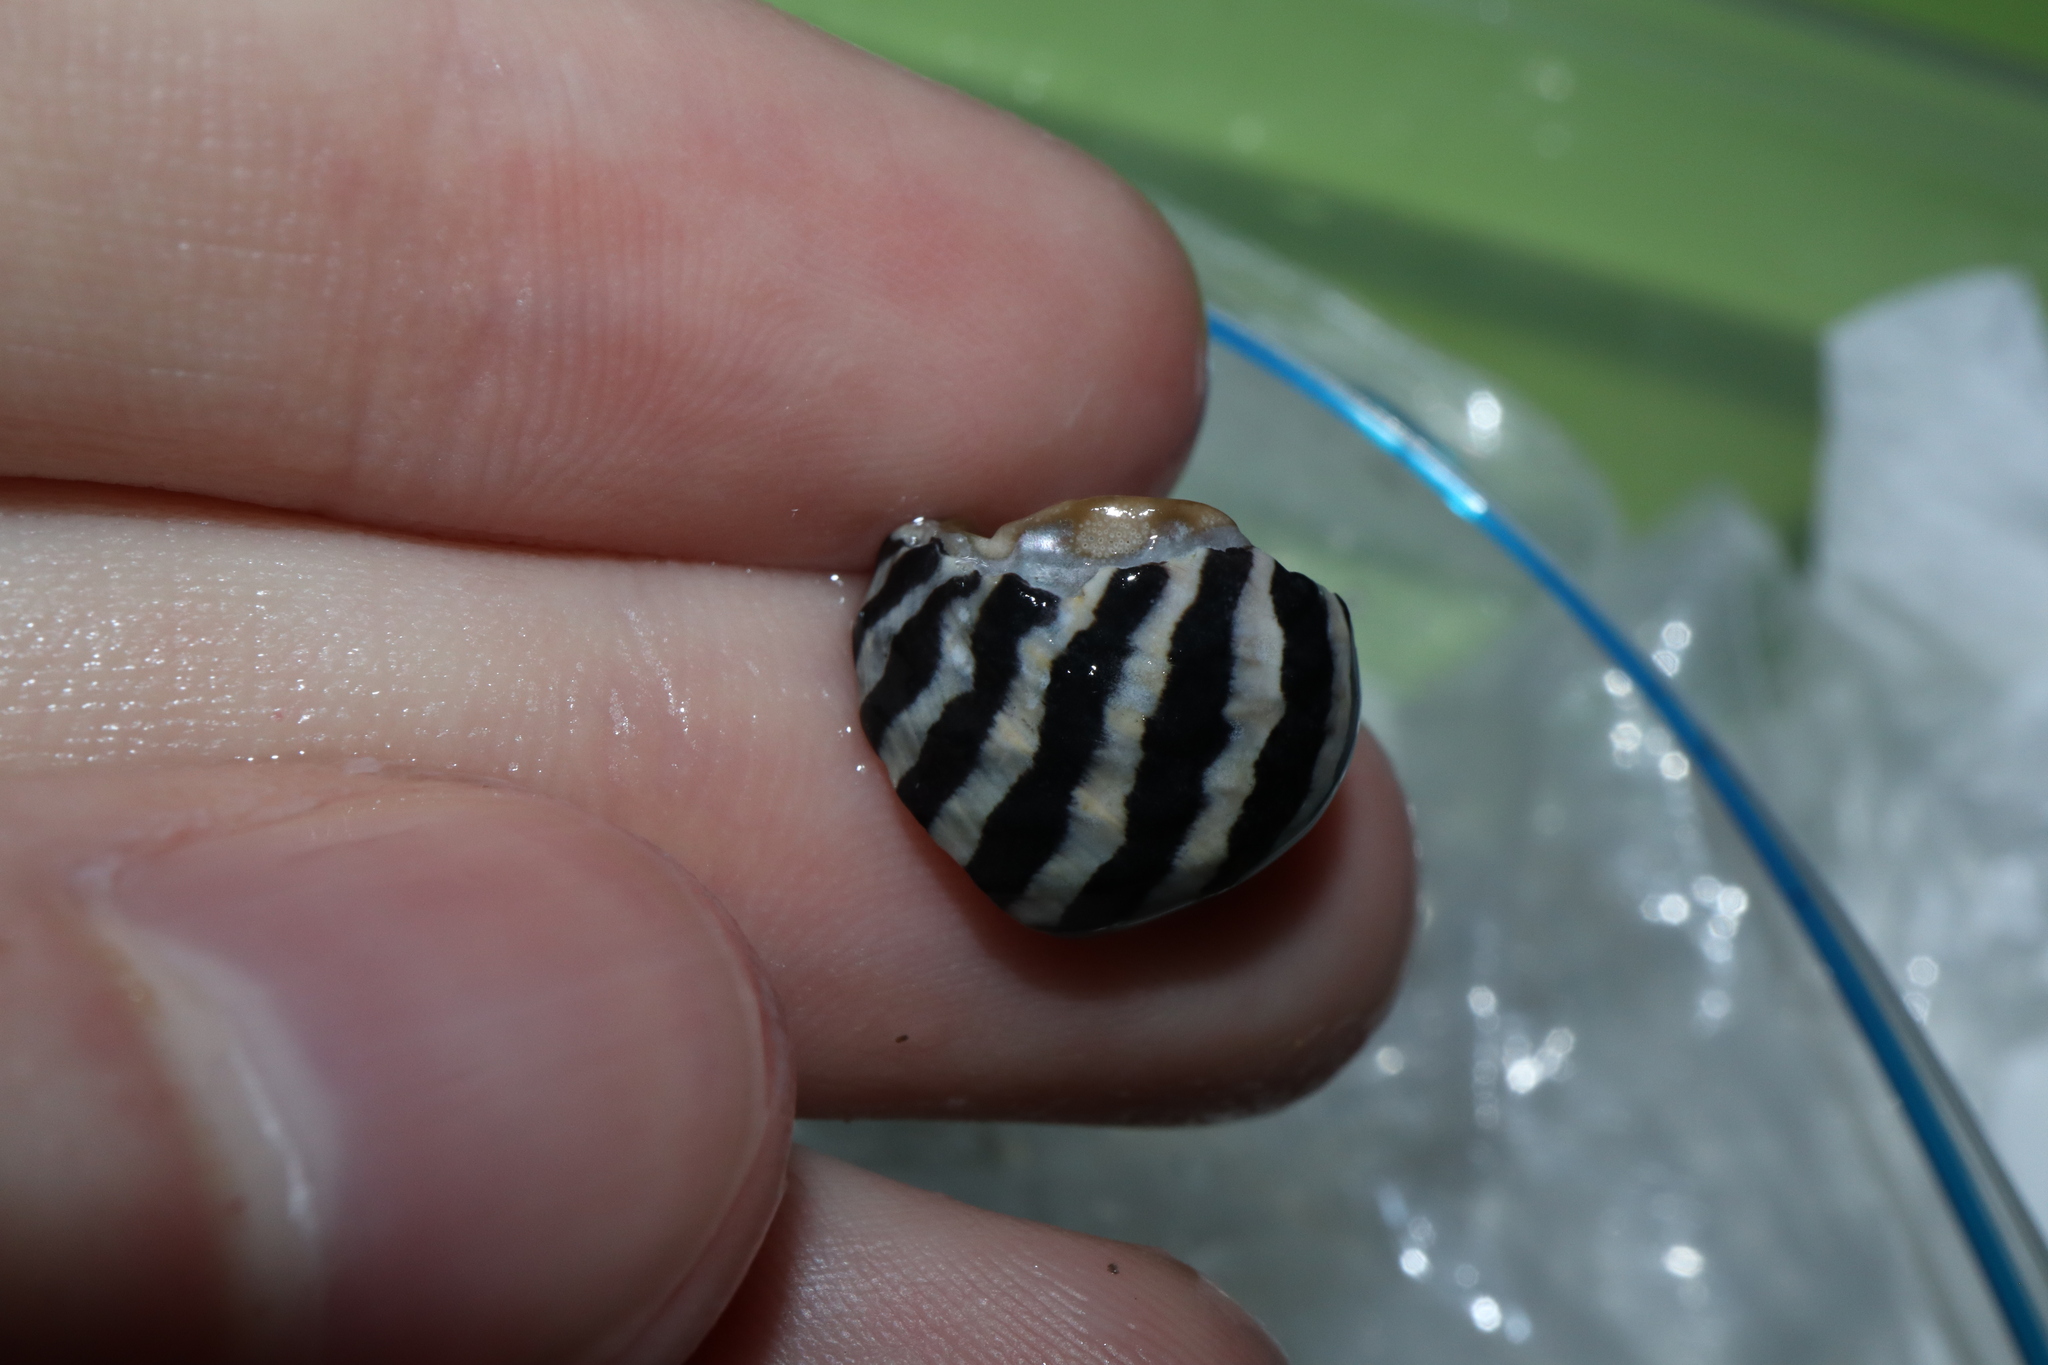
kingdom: Animalia
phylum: Mollusca
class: Gastropoda
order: Trochida
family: Trochidae
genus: Austrocochlea
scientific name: Austrocochlea porcata
